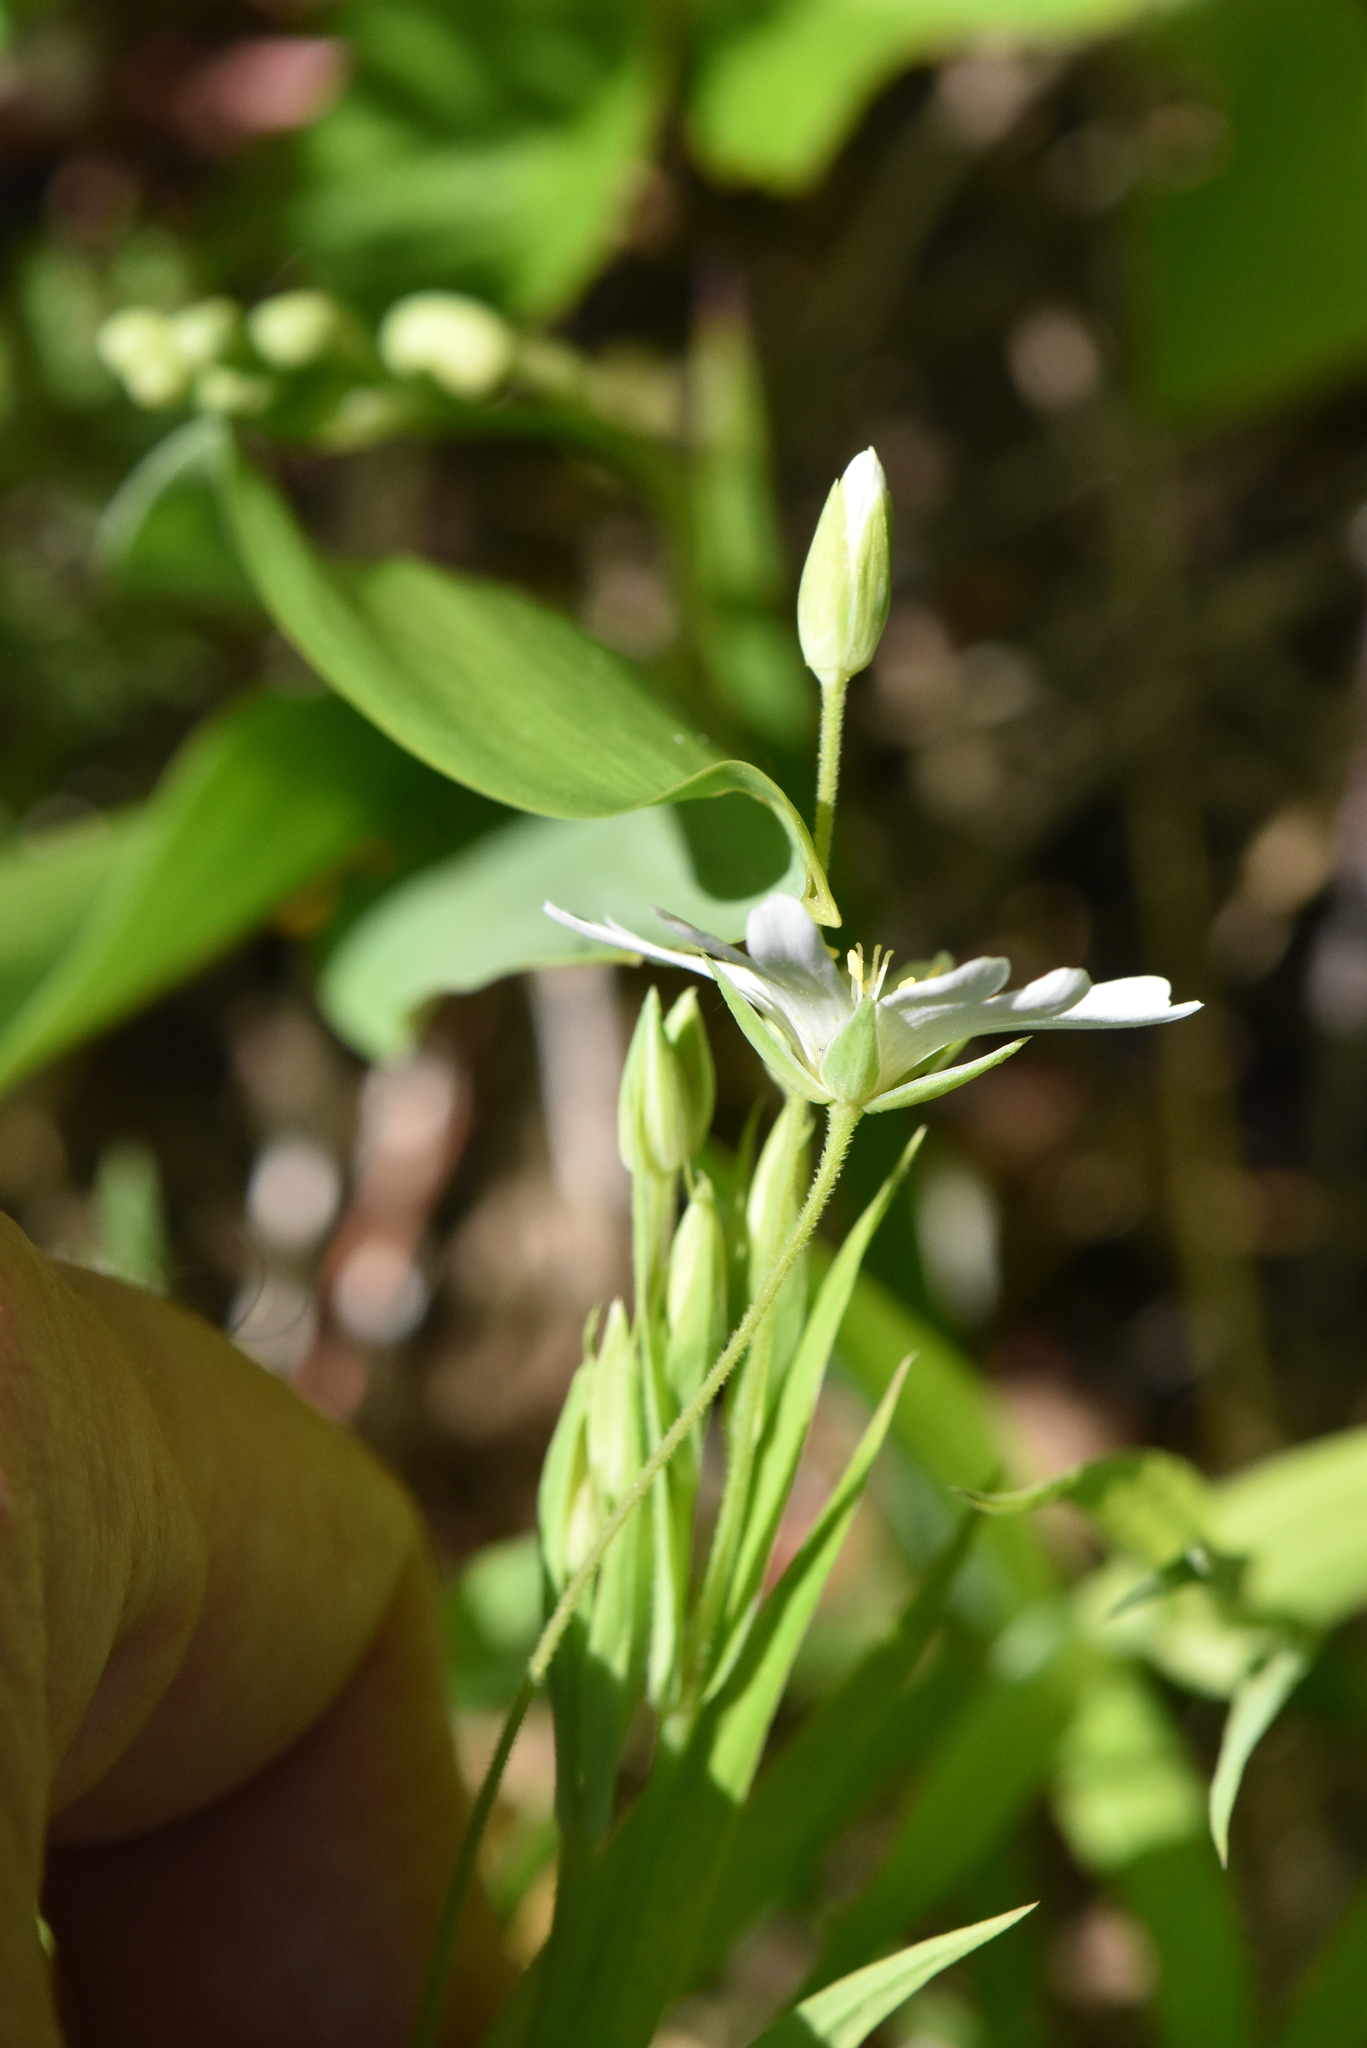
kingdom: Plantae
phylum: Tracheophyta
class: Magnoliopsida
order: Caryophyllales
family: Caryophyllaceae
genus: Rabelera
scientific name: Rabelera holostea
